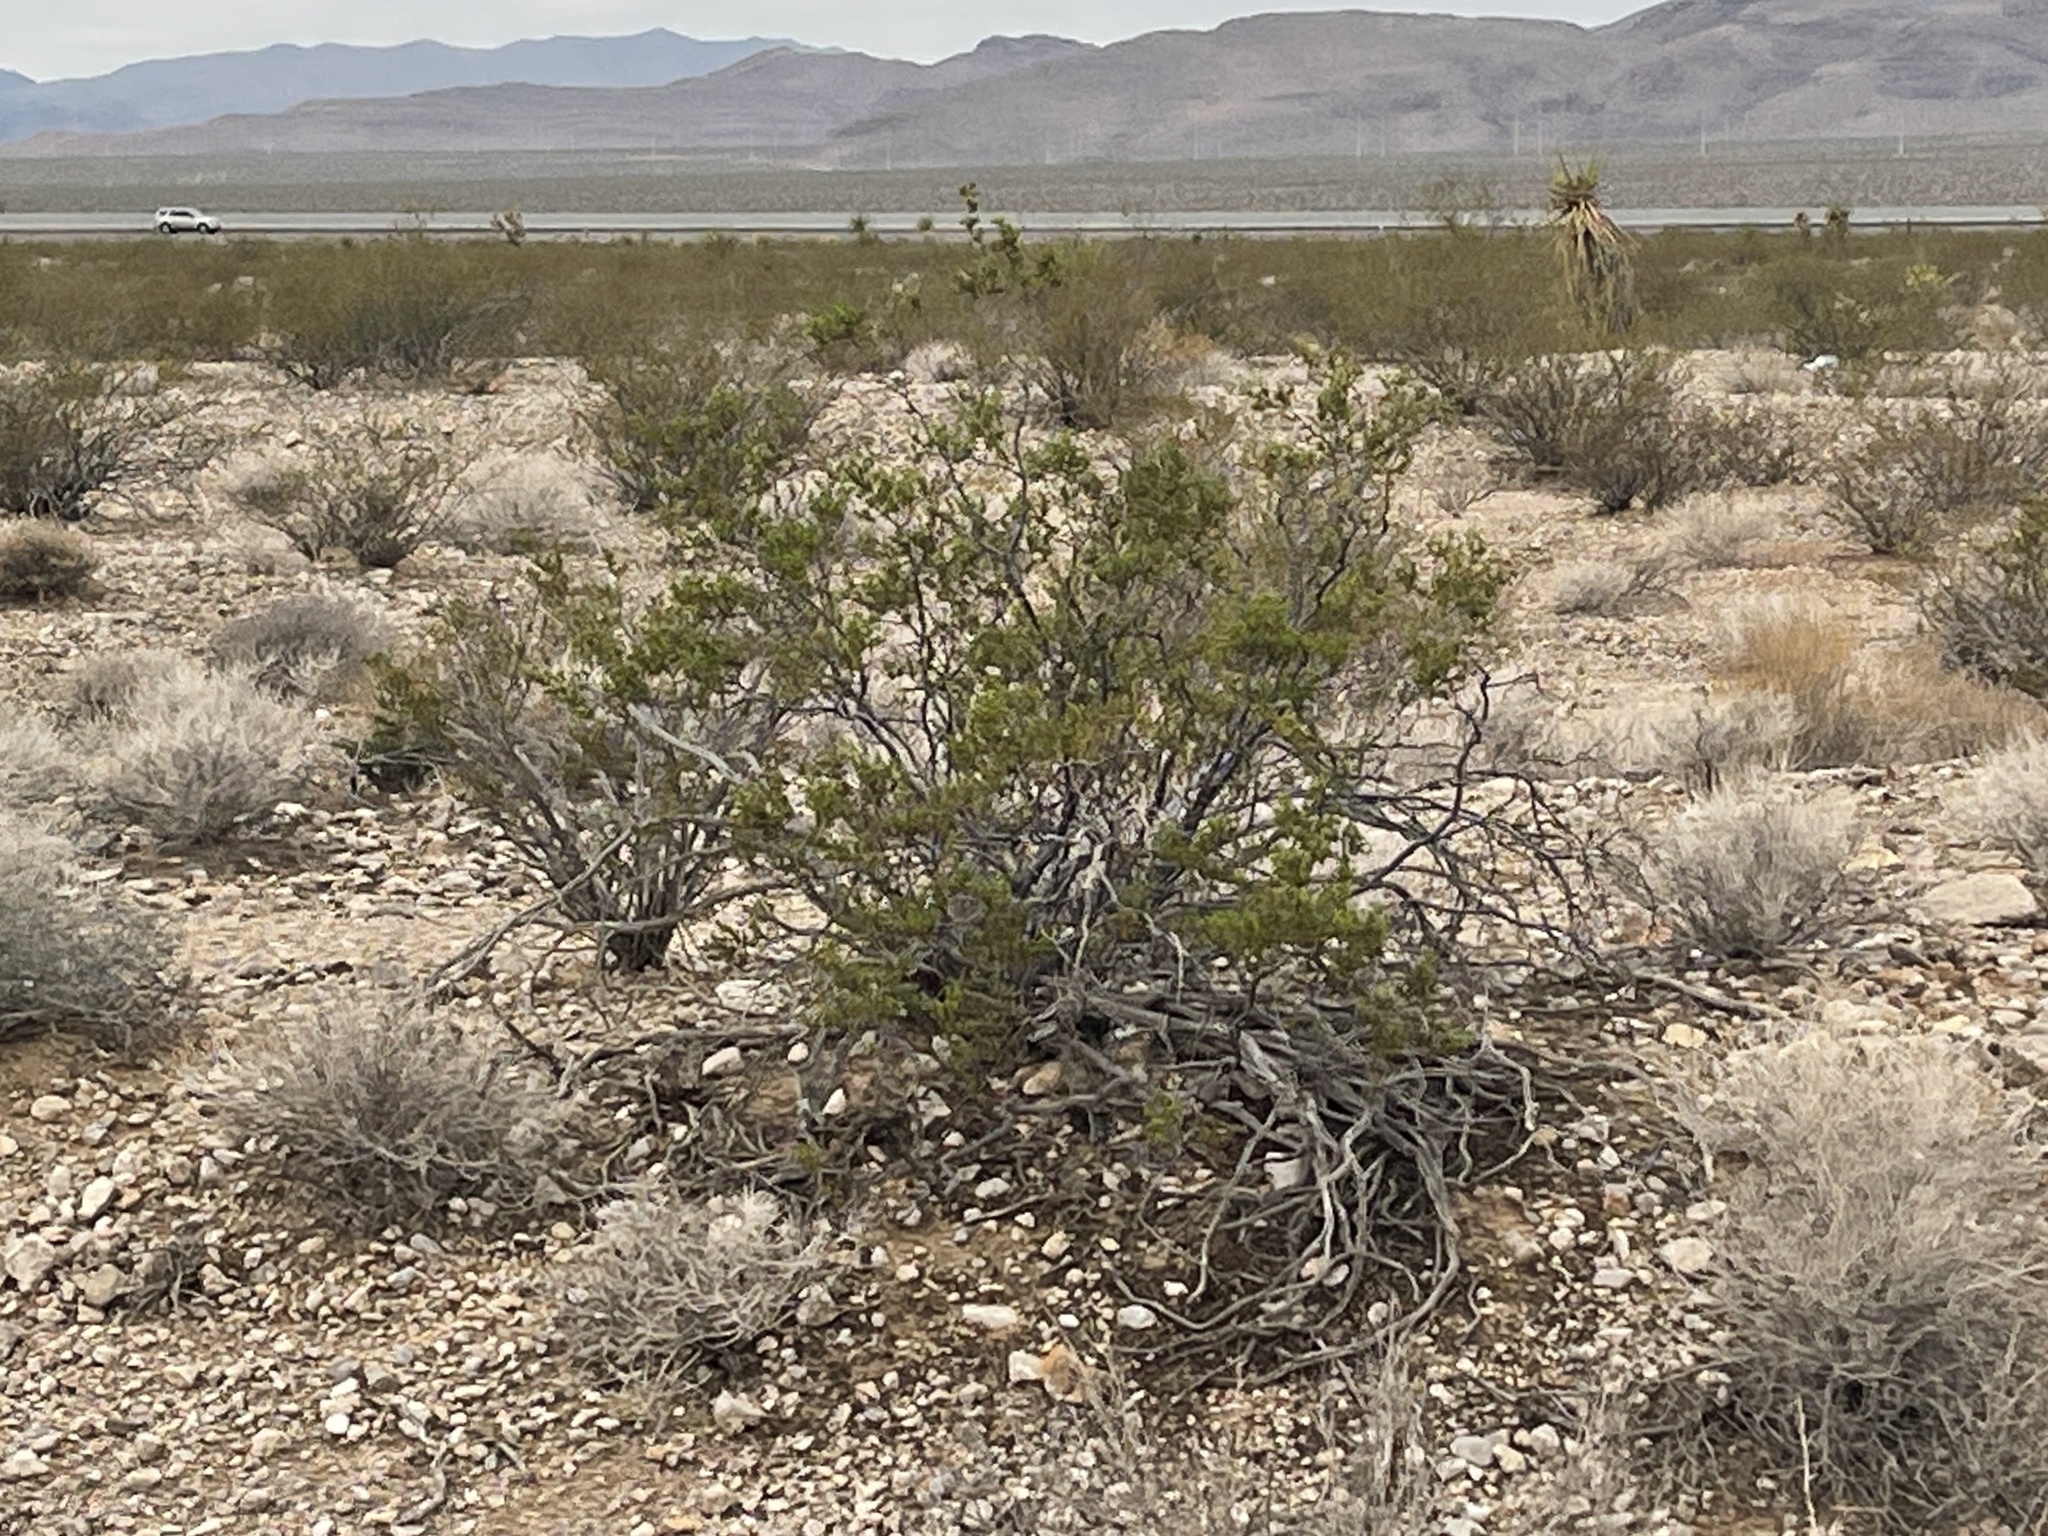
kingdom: Plantae
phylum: Tracheophyta
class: Magnoliopsida
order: Zygophyllales
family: Zygophyllaceae
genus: Larrea
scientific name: Larrea tridentata
